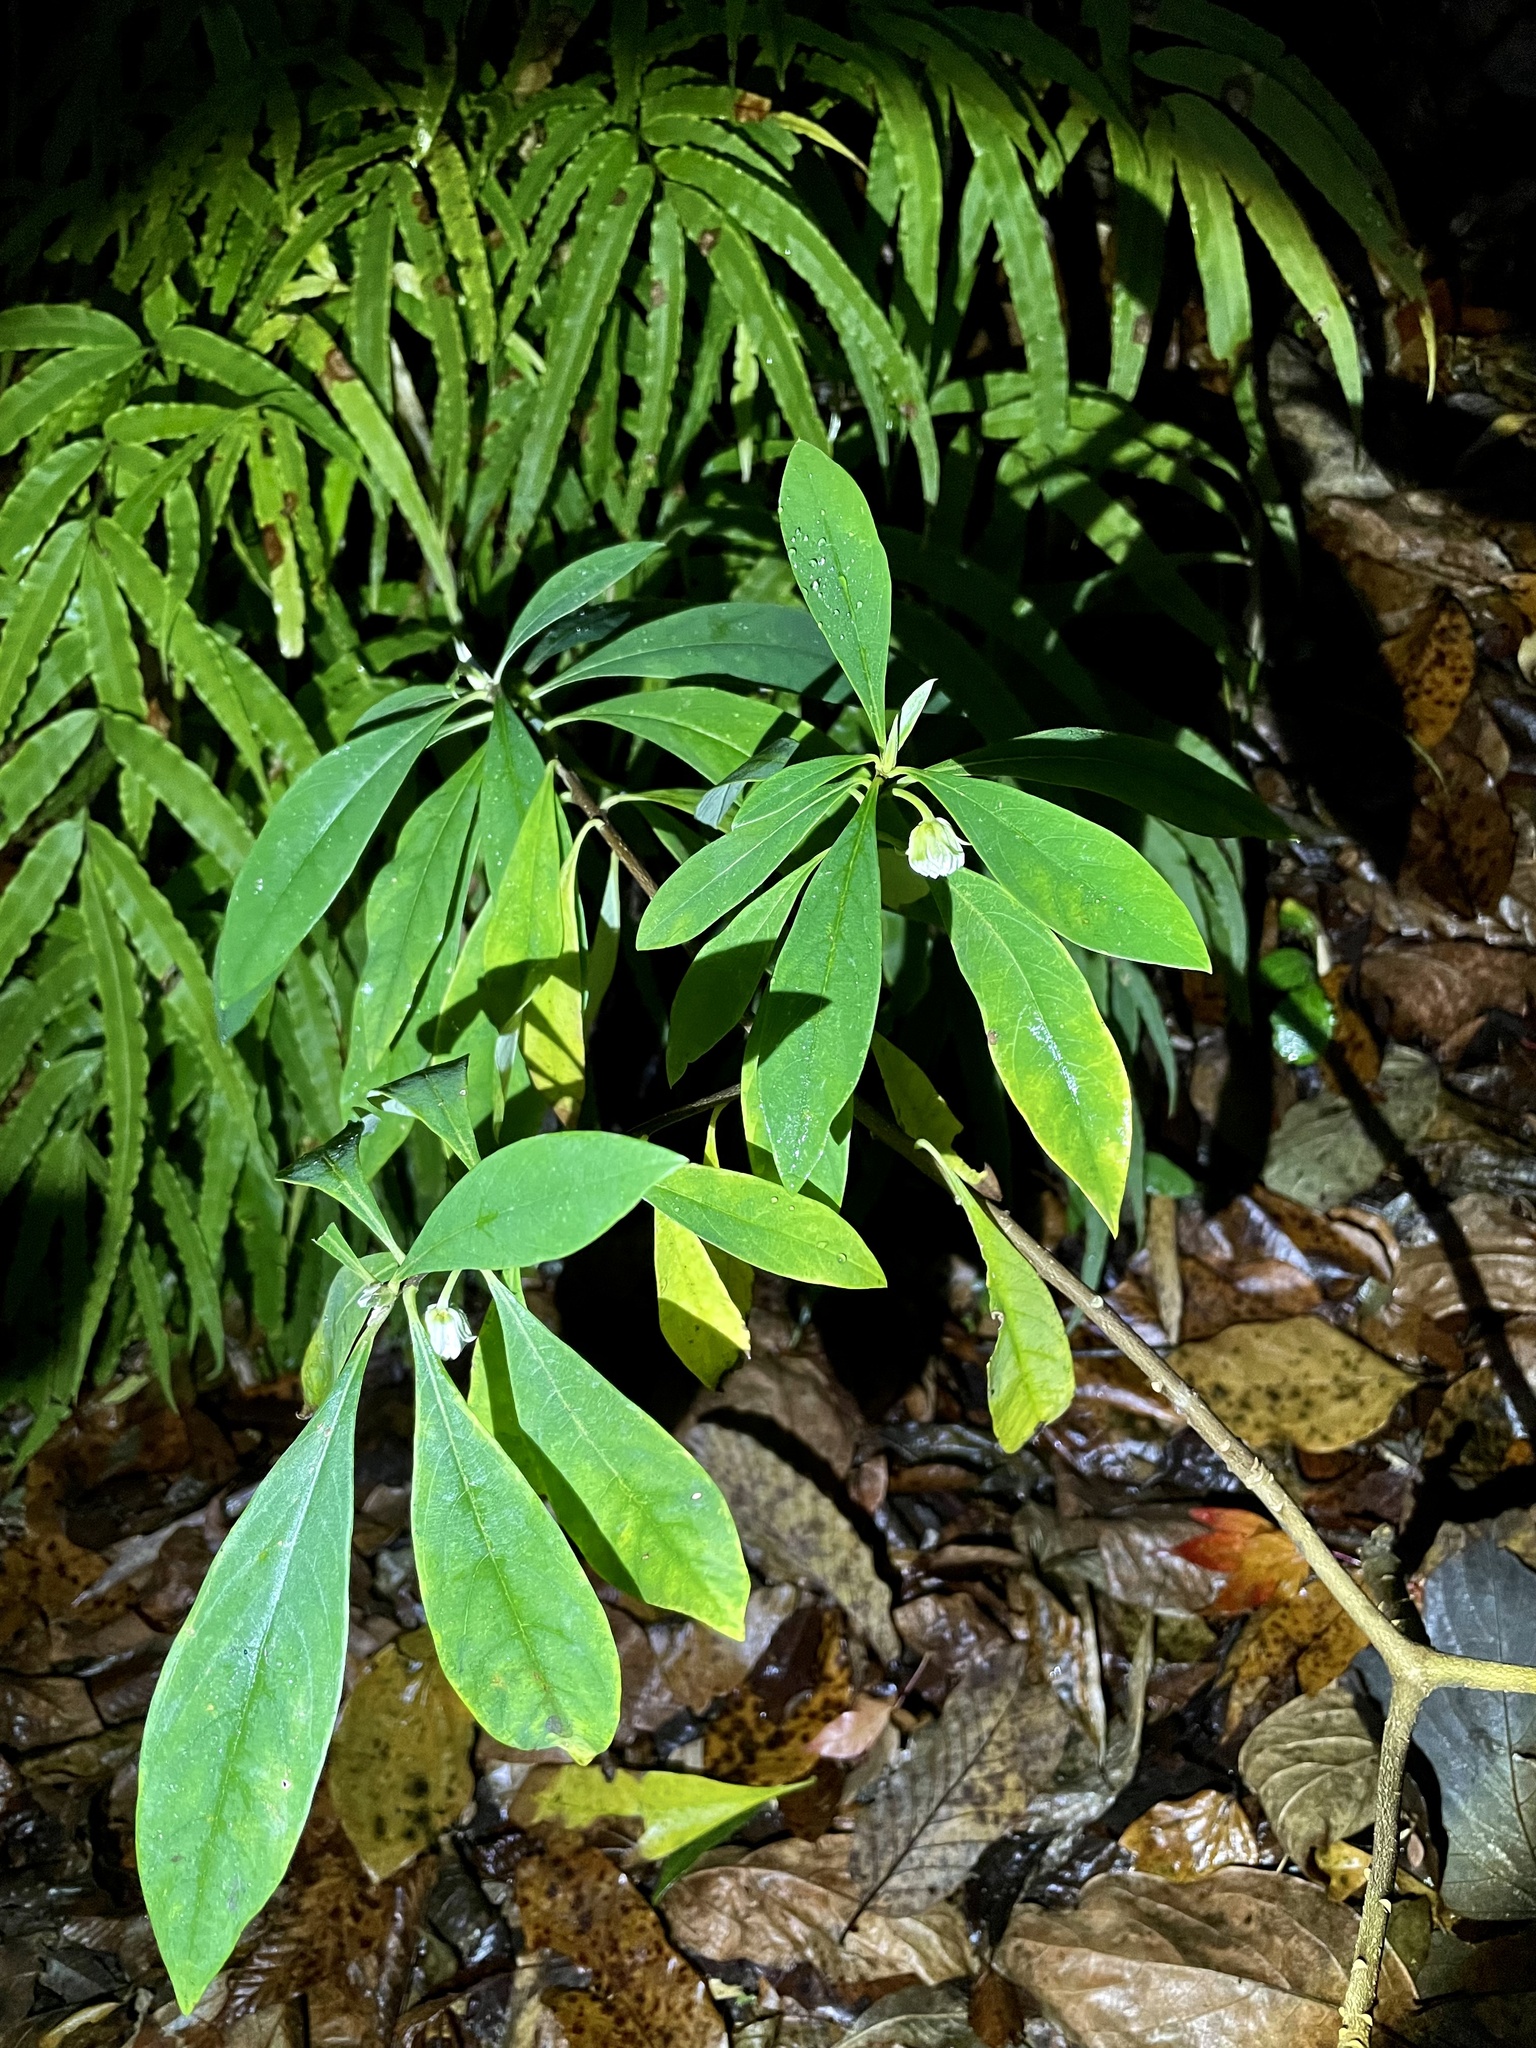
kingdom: Plantae
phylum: Tracheophyta
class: Magnoliopsida
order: Malvales
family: Thymelaeaceae
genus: Edgeworthia
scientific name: Edgeworthia chrysantha
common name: Oriental paperbush
